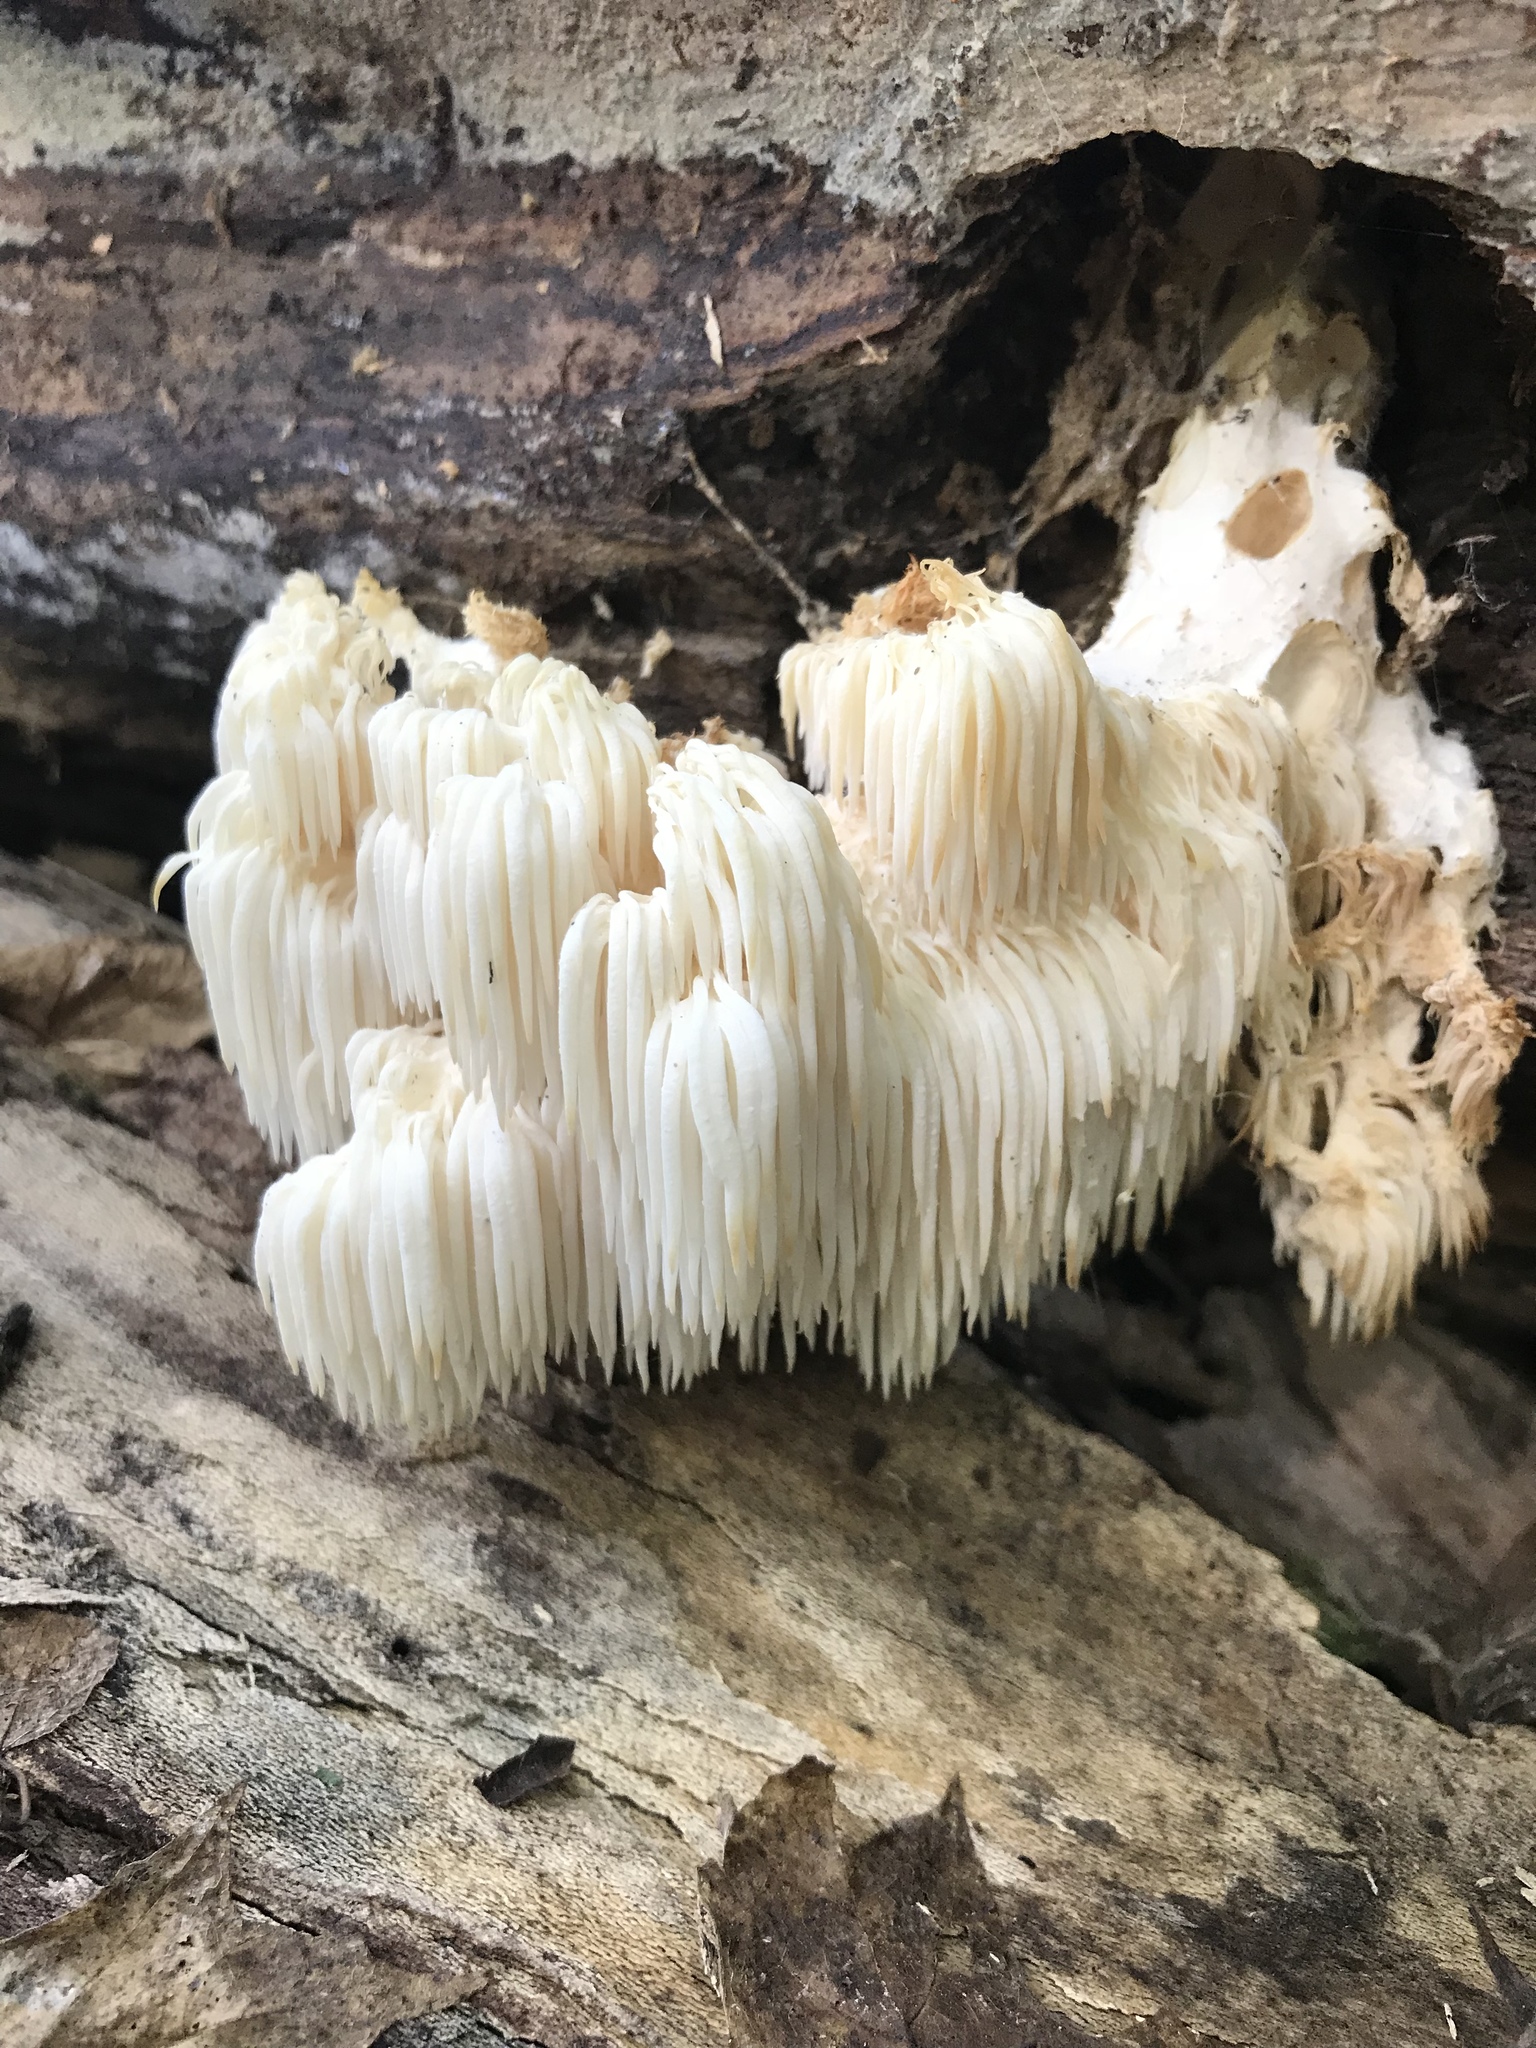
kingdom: Fungi
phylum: Basidiomycota
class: Agaricomycetes
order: Russulales
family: Hericiaceae
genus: Hericium
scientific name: Hericium americanum
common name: Bear's head tooth
